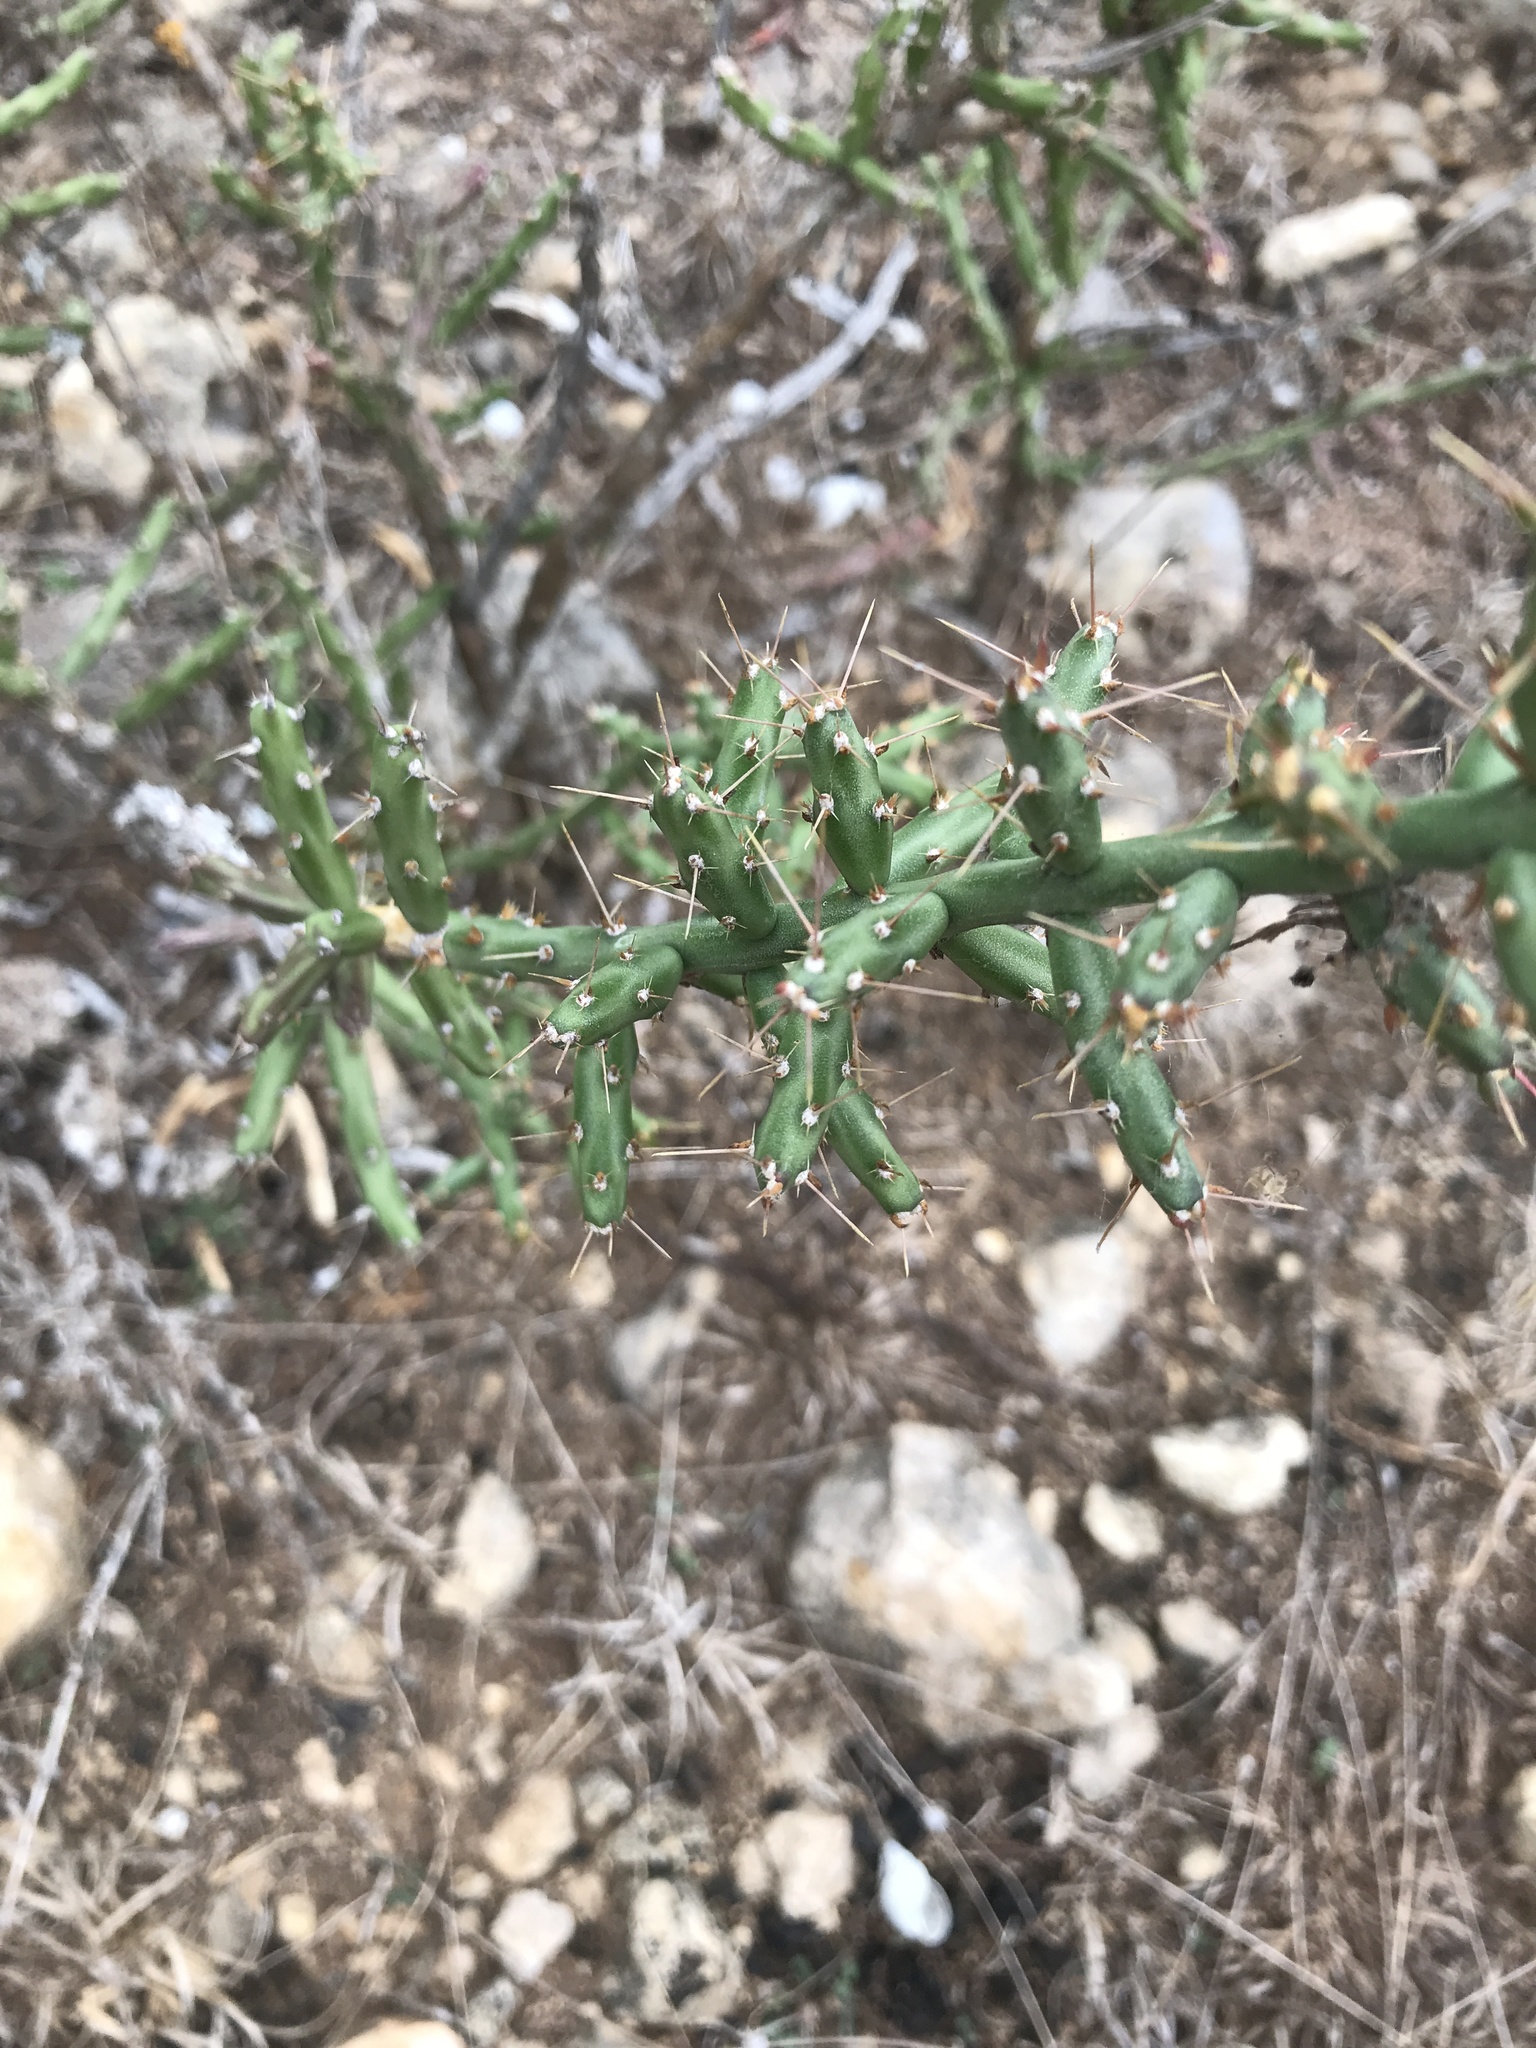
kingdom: Plantae
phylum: Tracheophyta
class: Magnoliopsida
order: Caryophyllales
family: Cactaceae
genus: Cylindropuntia
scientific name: Cylindropuntia leptocaulis
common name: Christmas cactus
